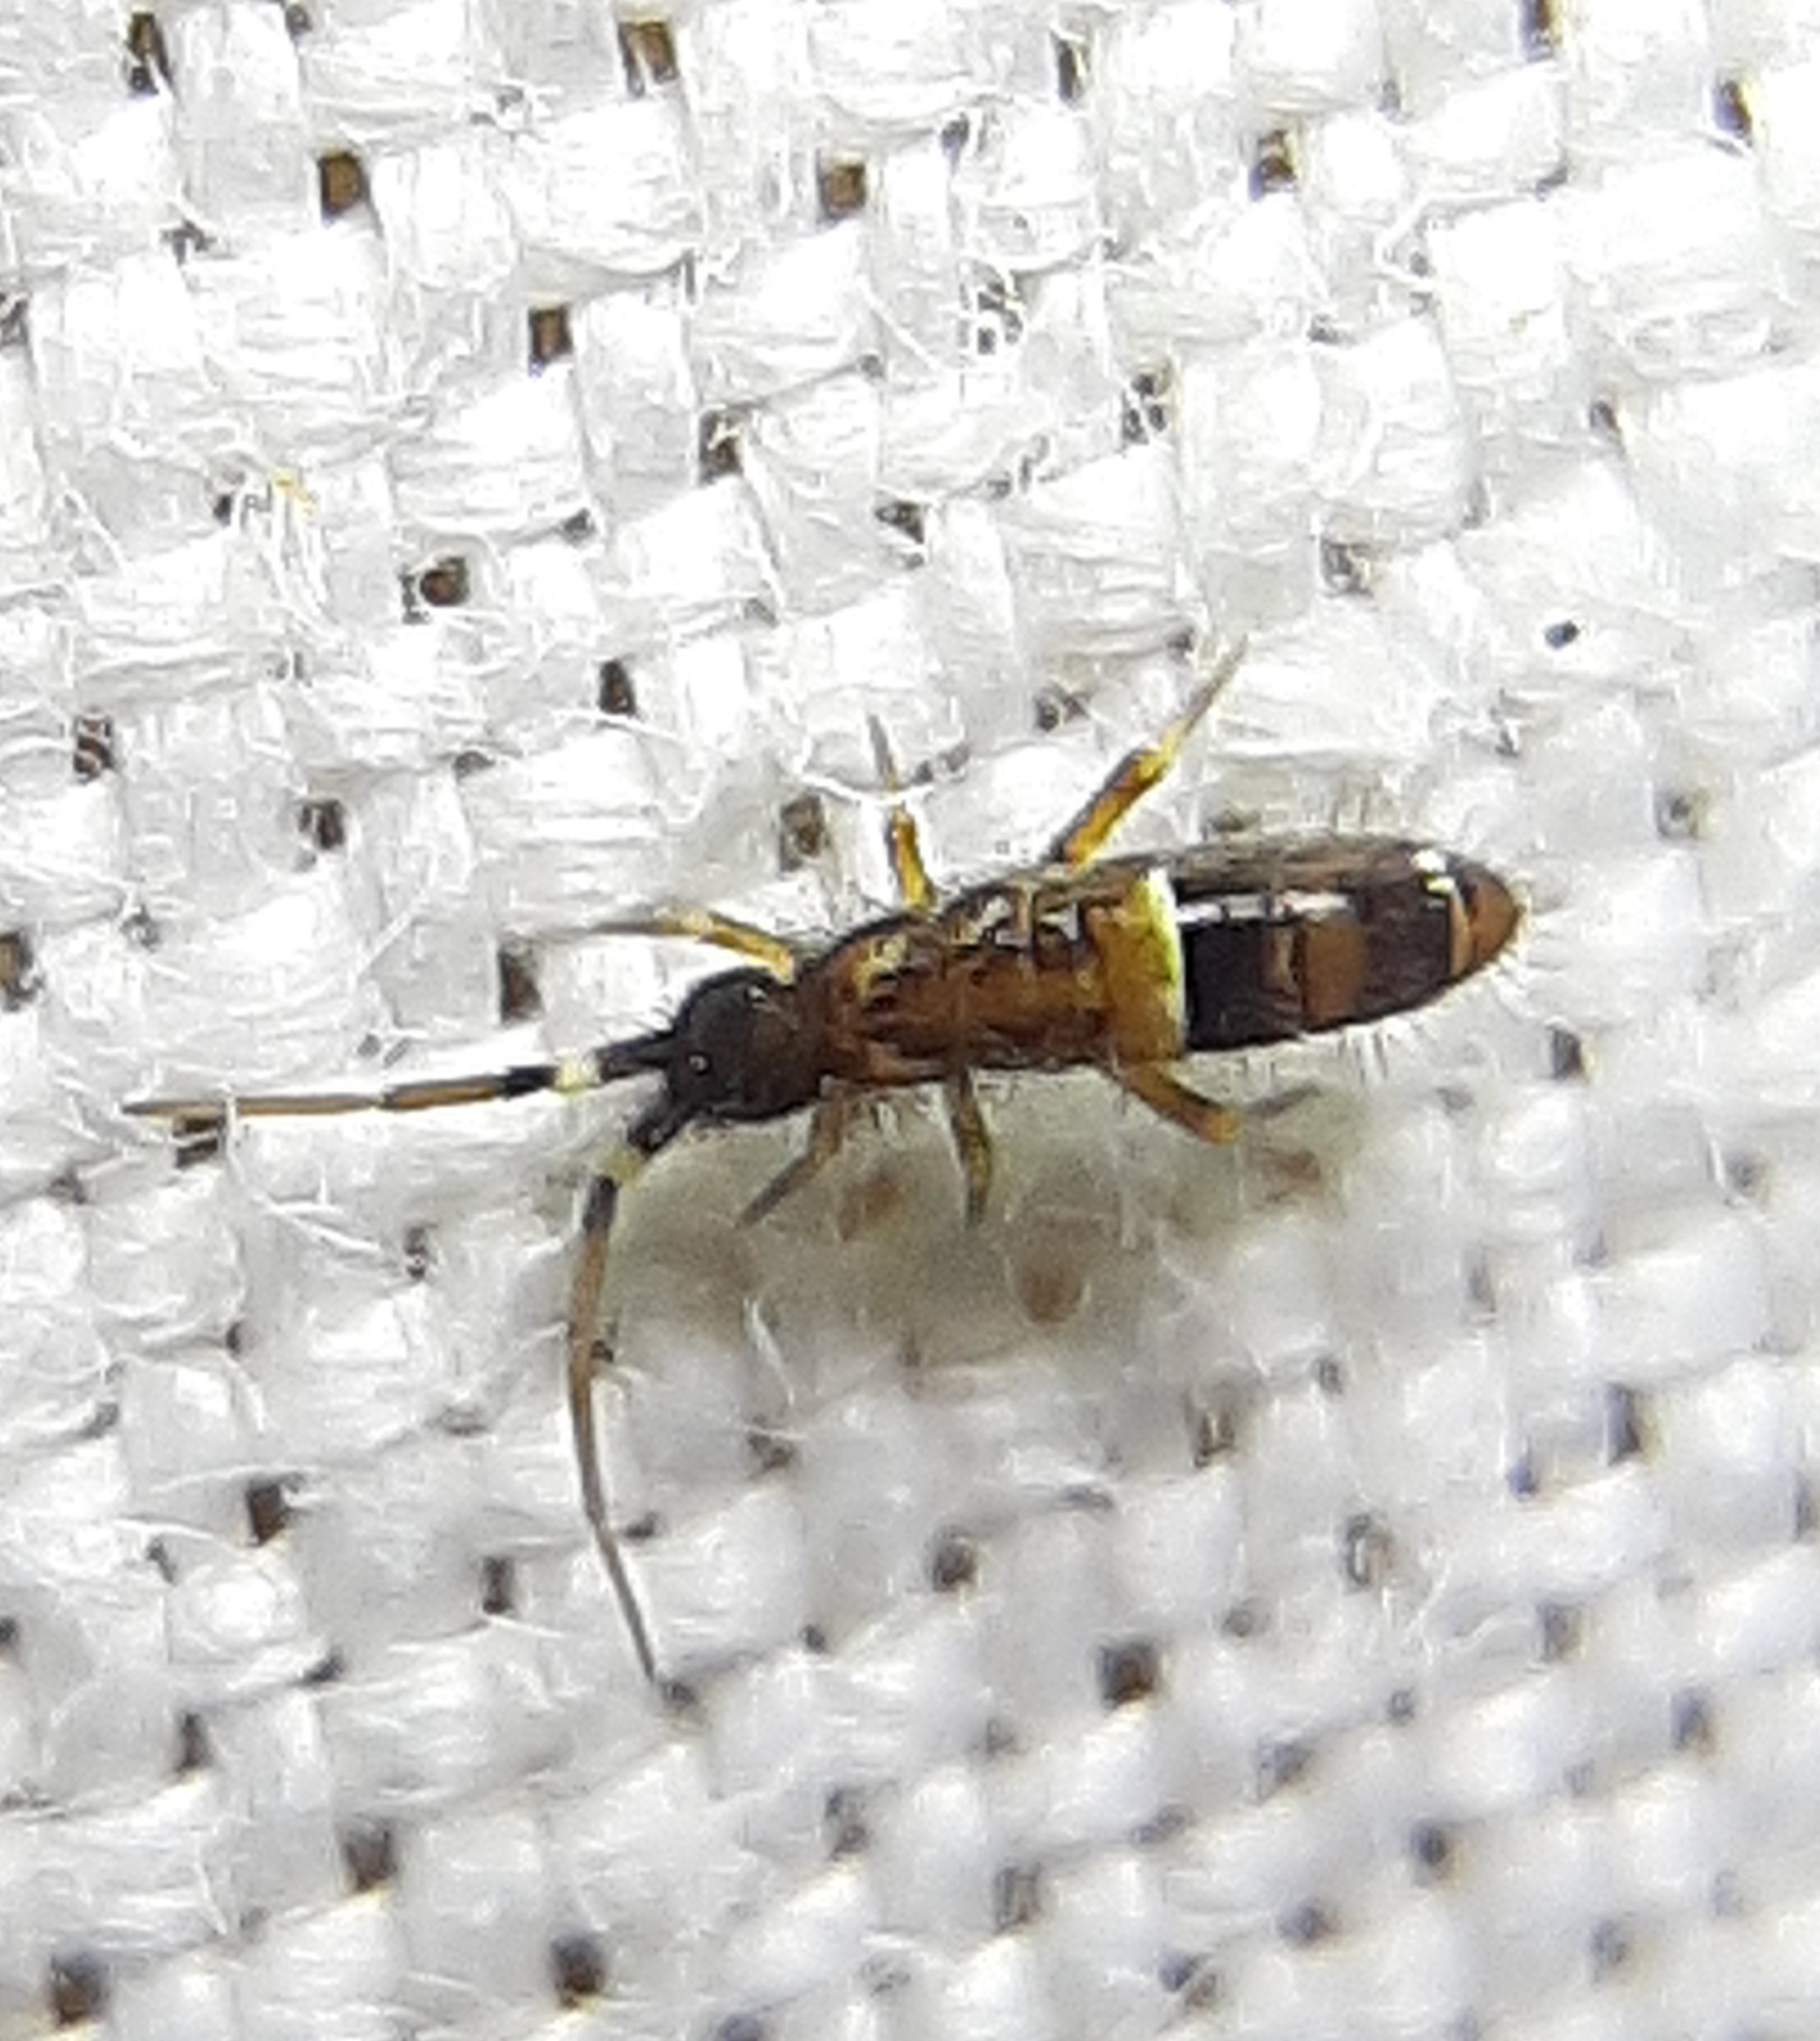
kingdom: Animalia
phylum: Arthropoda
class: Collembola
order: Entomobryomorpha
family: Orchesellidae
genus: Orchesella
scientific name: Orchesella cincta
